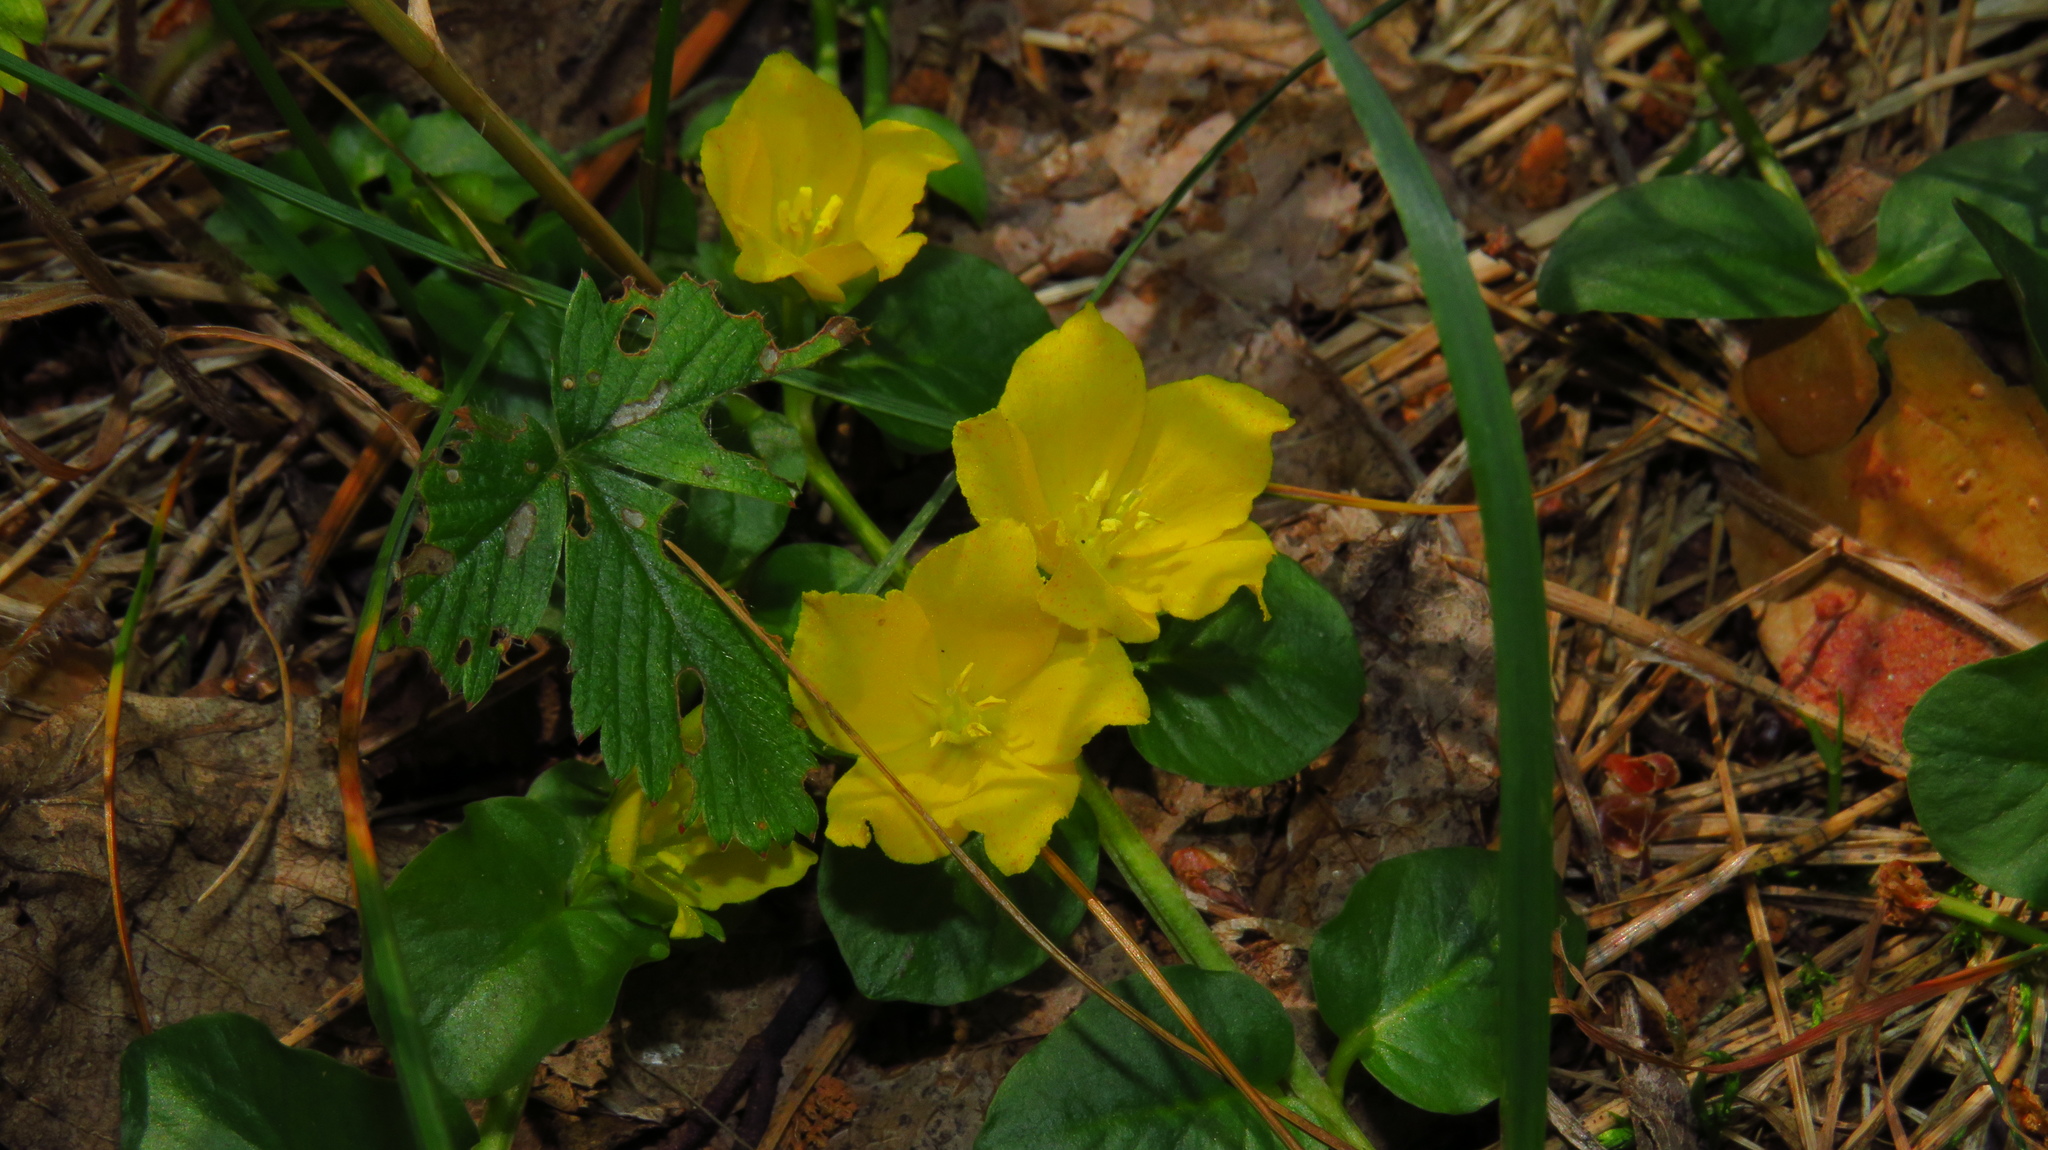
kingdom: Plantae
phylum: Tracheophyta
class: Magnoliopsida
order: Ericales
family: Primulaceae
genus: Lysimachia
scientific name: Lysimachia nummularia
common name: Moneywort
